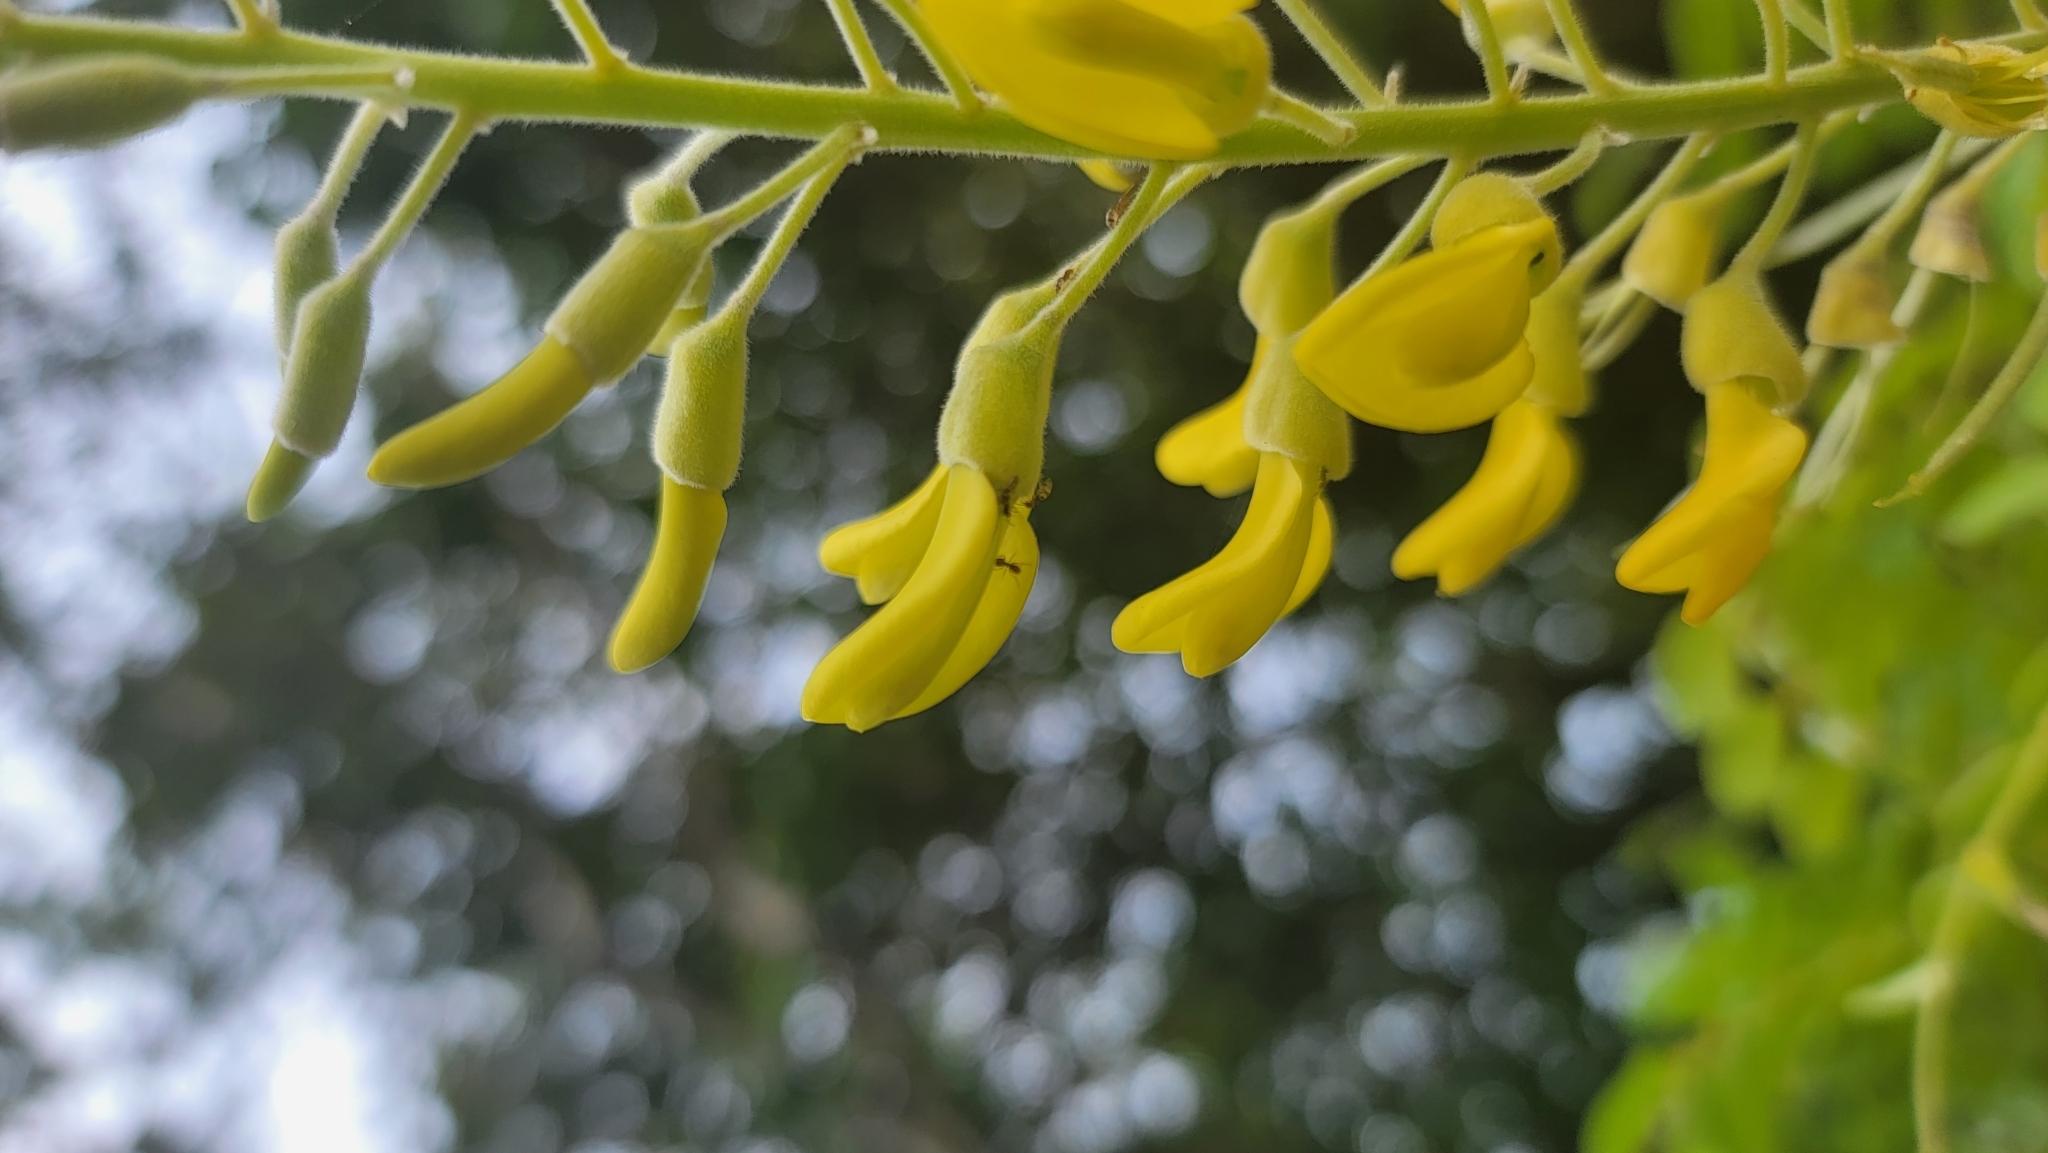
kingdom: Plantae
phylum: Tracheophyta
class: Magnoliopsida
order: Fabales
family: Fabaceae
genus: Sophora
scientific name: Sophora tomentosa
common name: Yellow necklacepod
